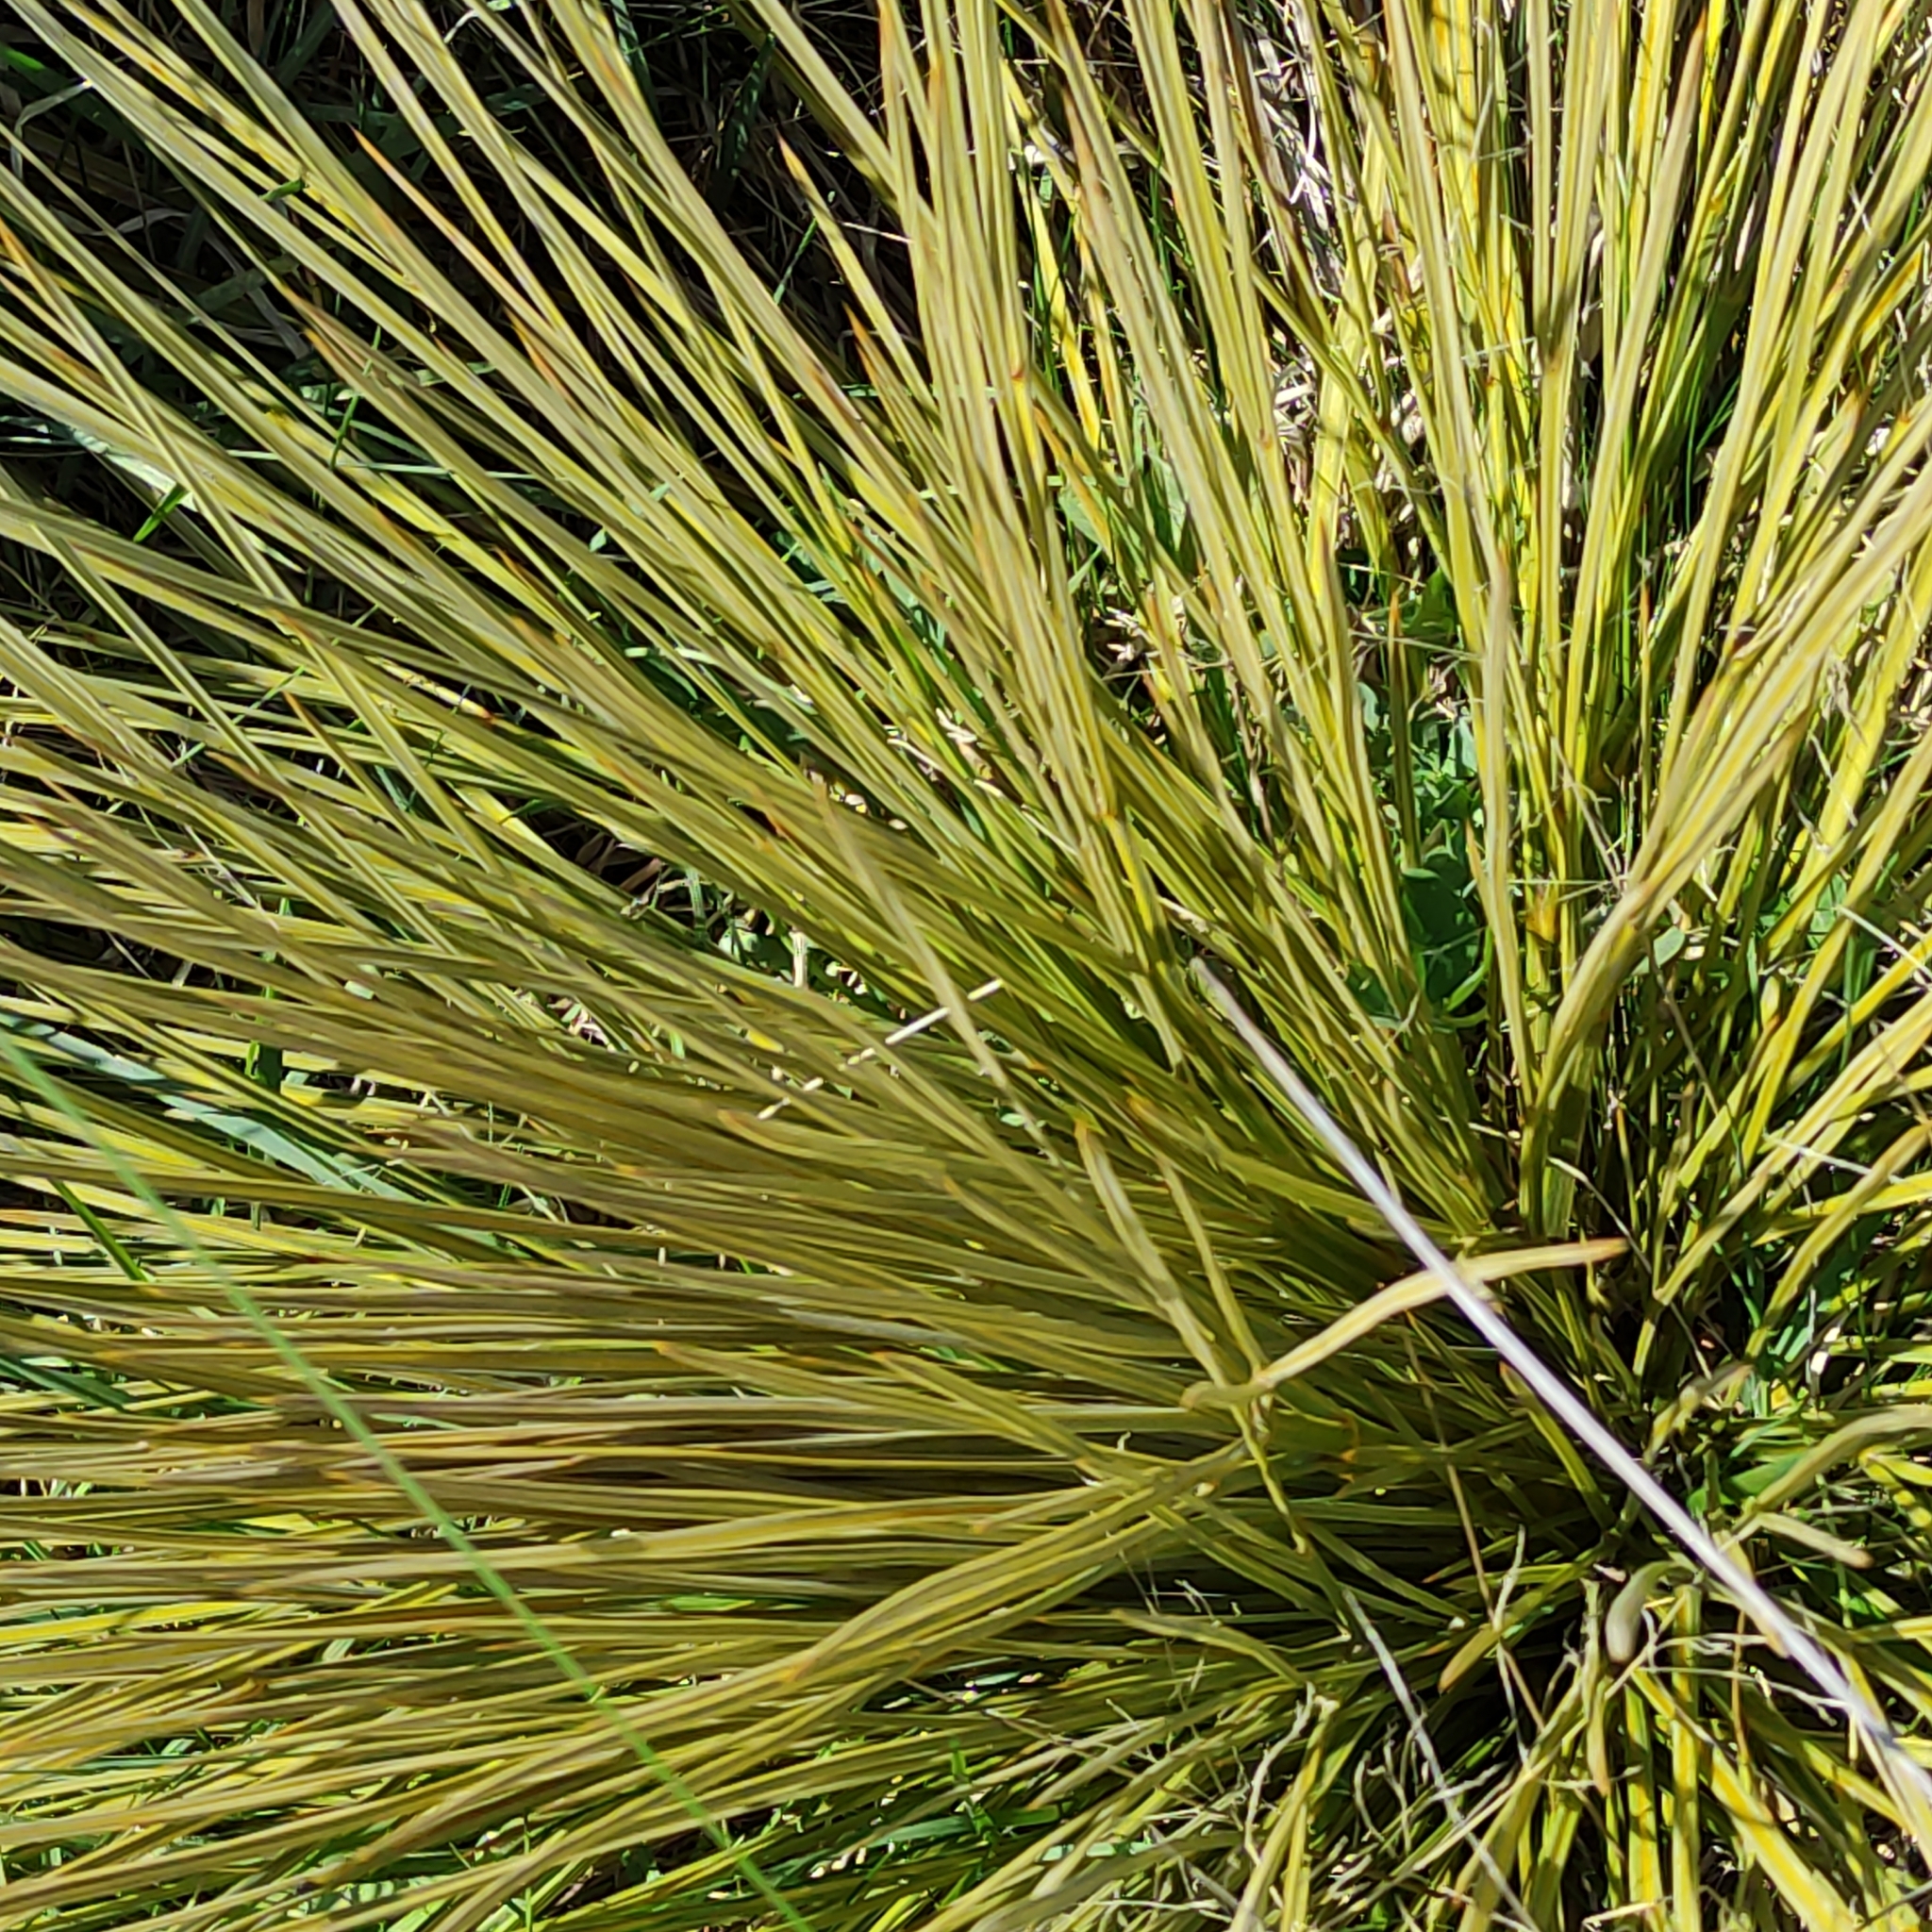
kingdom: Plantae
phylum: Tracheophyta
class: Magnoliopsida
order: Apiales
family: Apiaceae
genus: Aciphylla
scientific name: Aciphylla subflabellata
